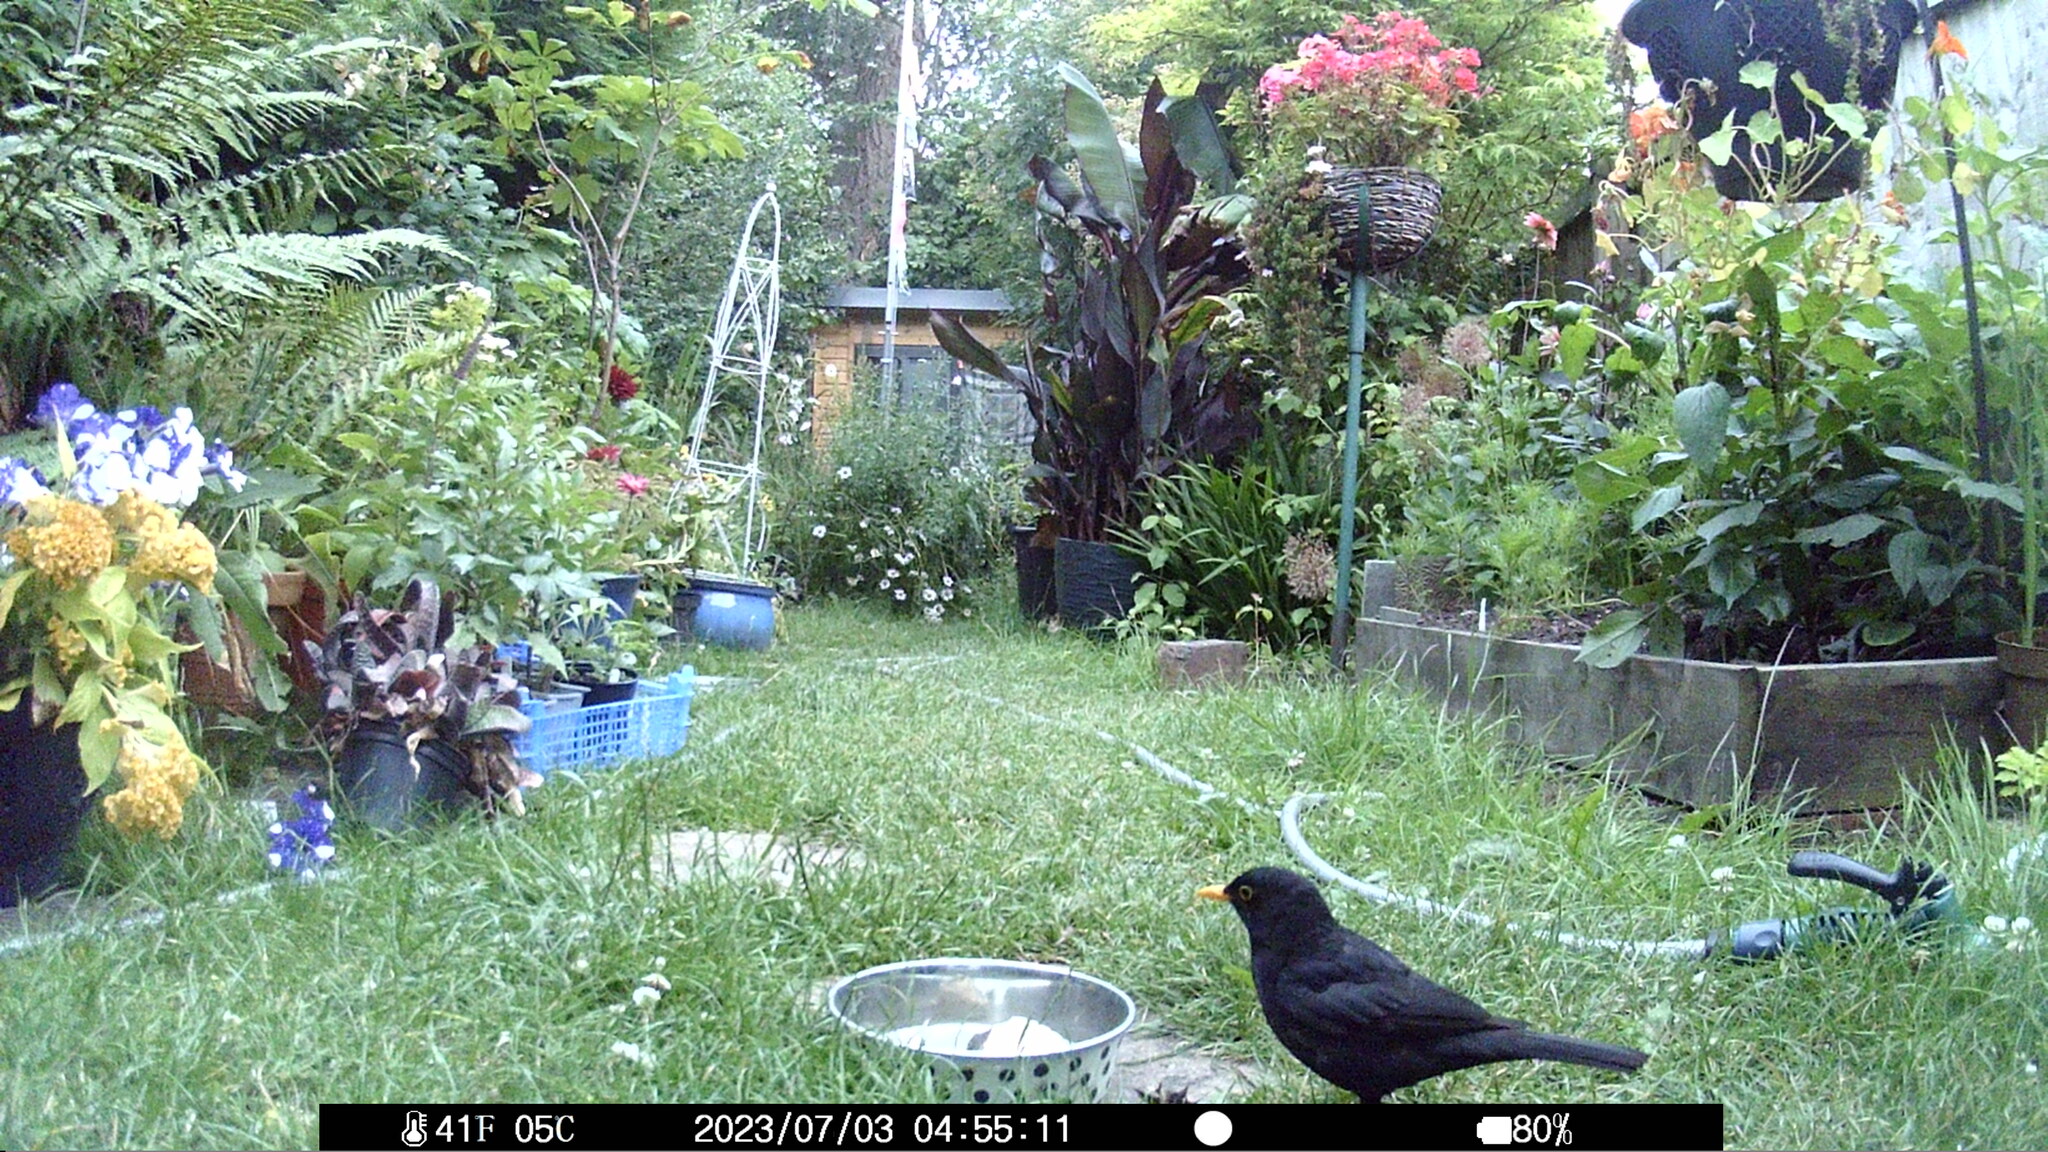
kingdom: Animalia
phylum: Chordata
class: Aves
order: Passeriformes
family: Turdidae
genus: Turdus
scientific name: Turdus merula
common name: Common blackbird
